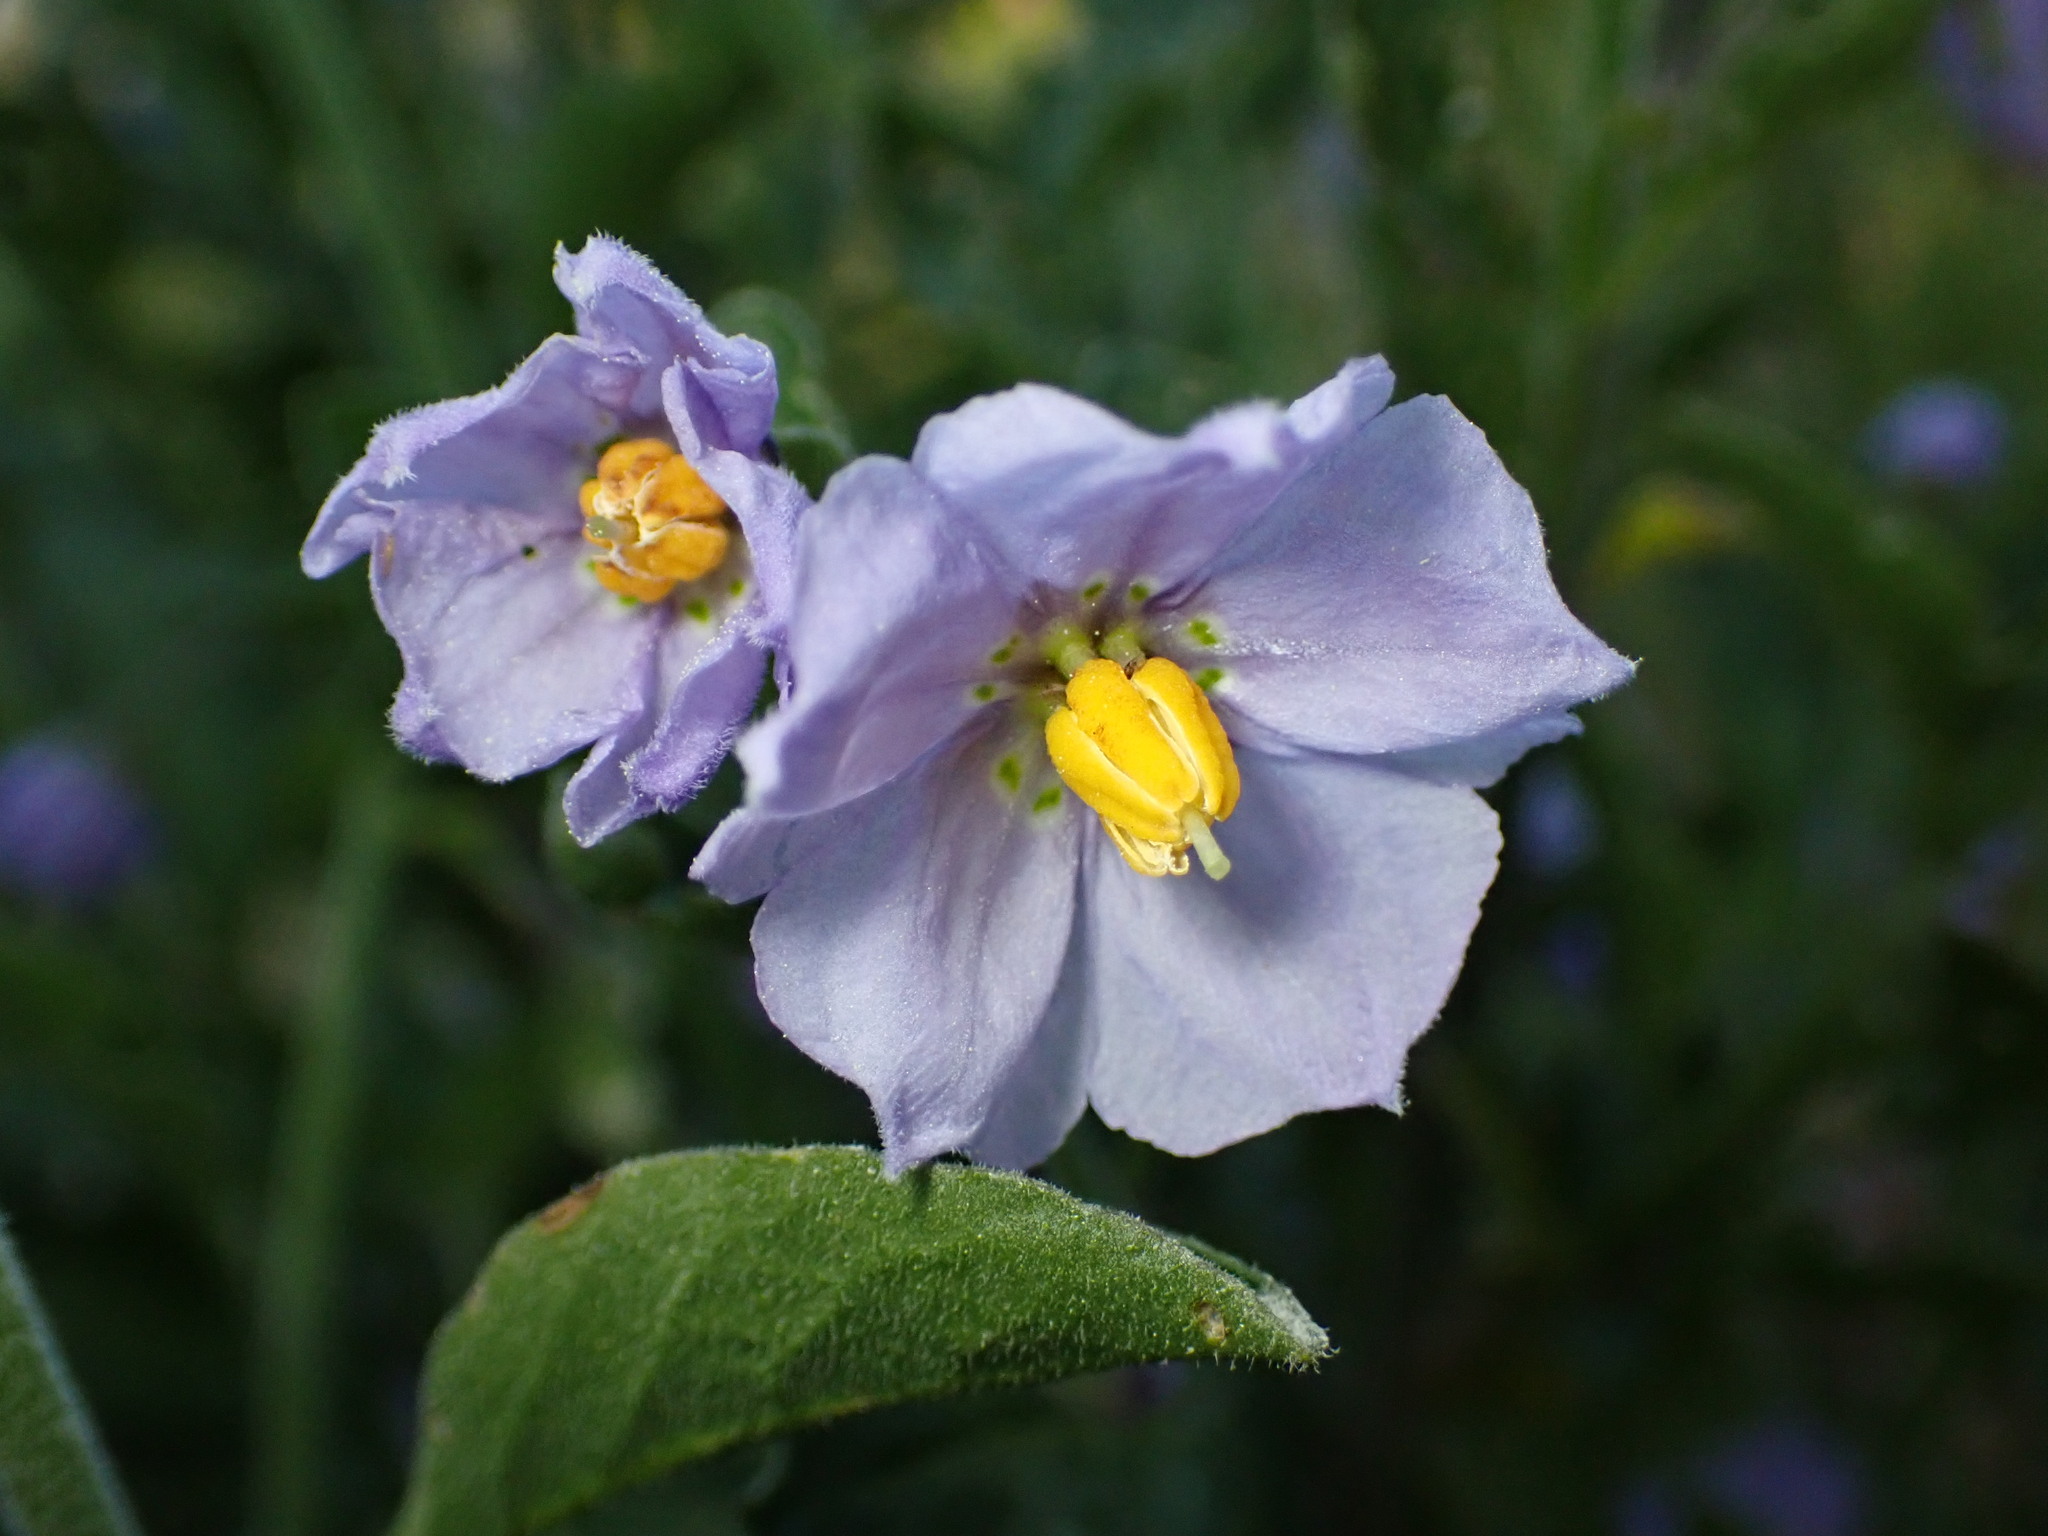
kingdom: Plantae
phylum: Tracheophyta
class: Magnoliopsida
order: Solanales
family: Solanaceae
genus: Solanum
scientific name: Solanum umbelliferum
